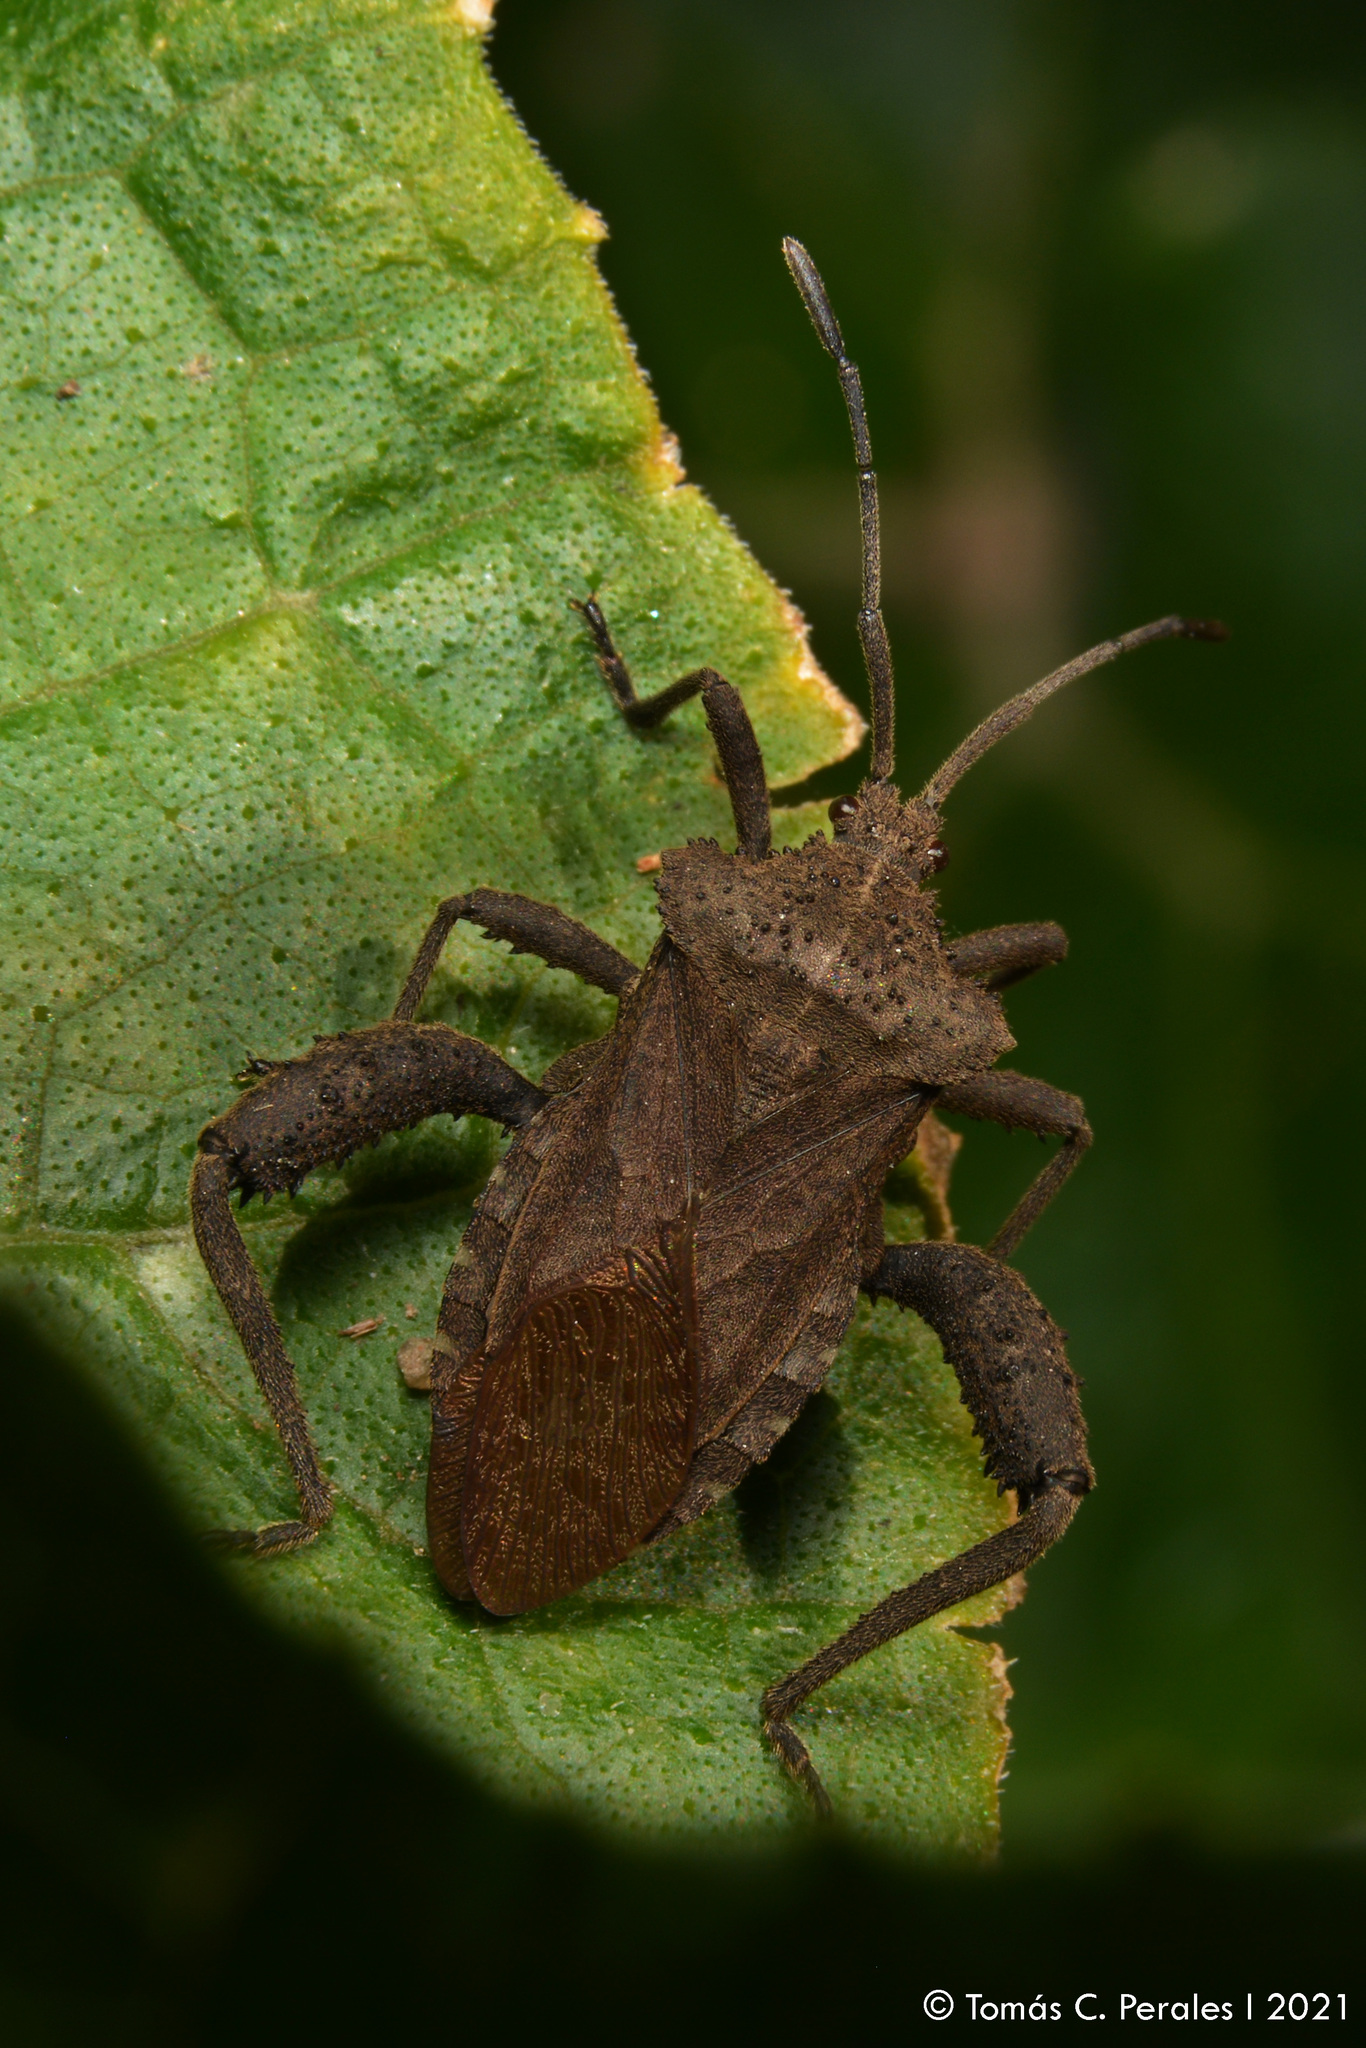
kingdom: Animalia
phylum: Arthropoda
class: Insecta
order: Hemiptera
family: Coreidae
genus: Camptischium
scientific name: Camptischium clavipes
